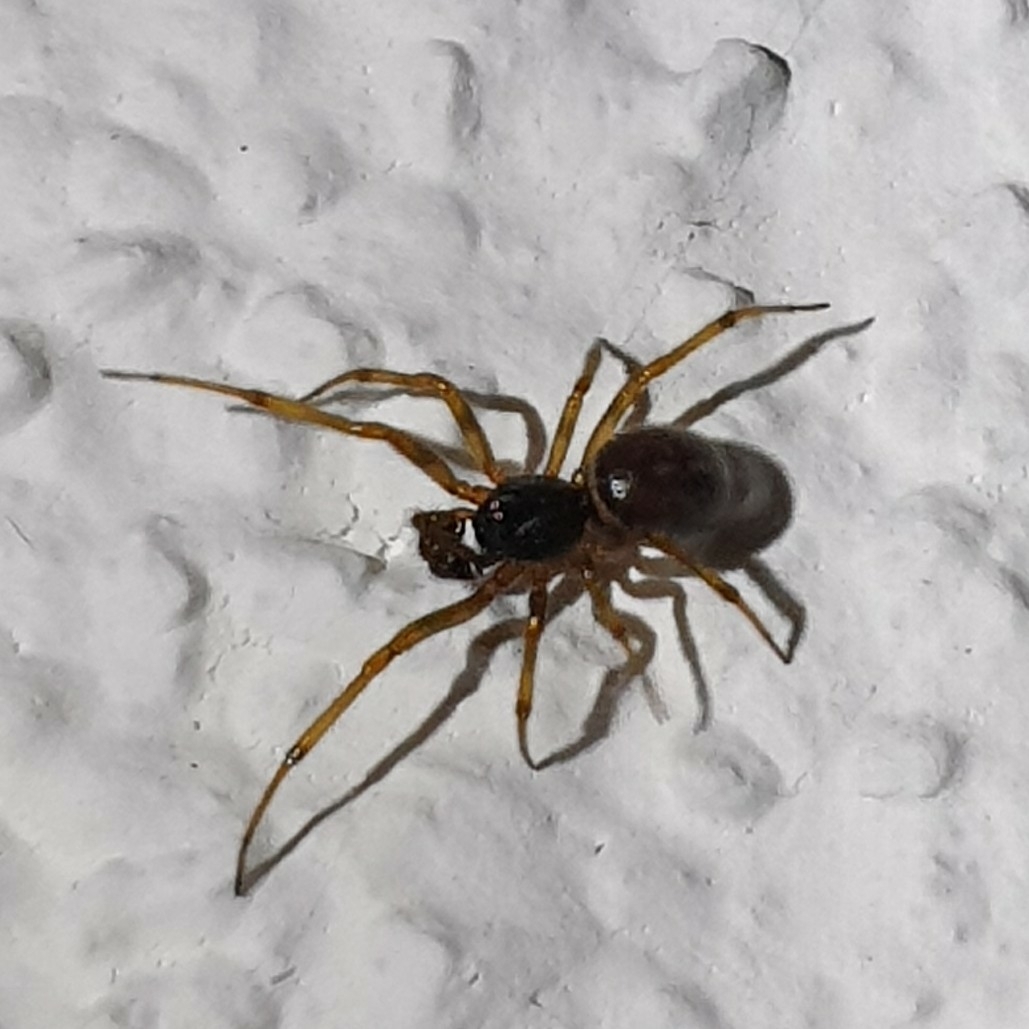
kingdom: Animalia
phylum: Arthropoda
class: Arachnida
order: Araneae
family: Theridiidae
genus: Steatoda
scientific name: Steatoda bipunctata
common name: False widow
